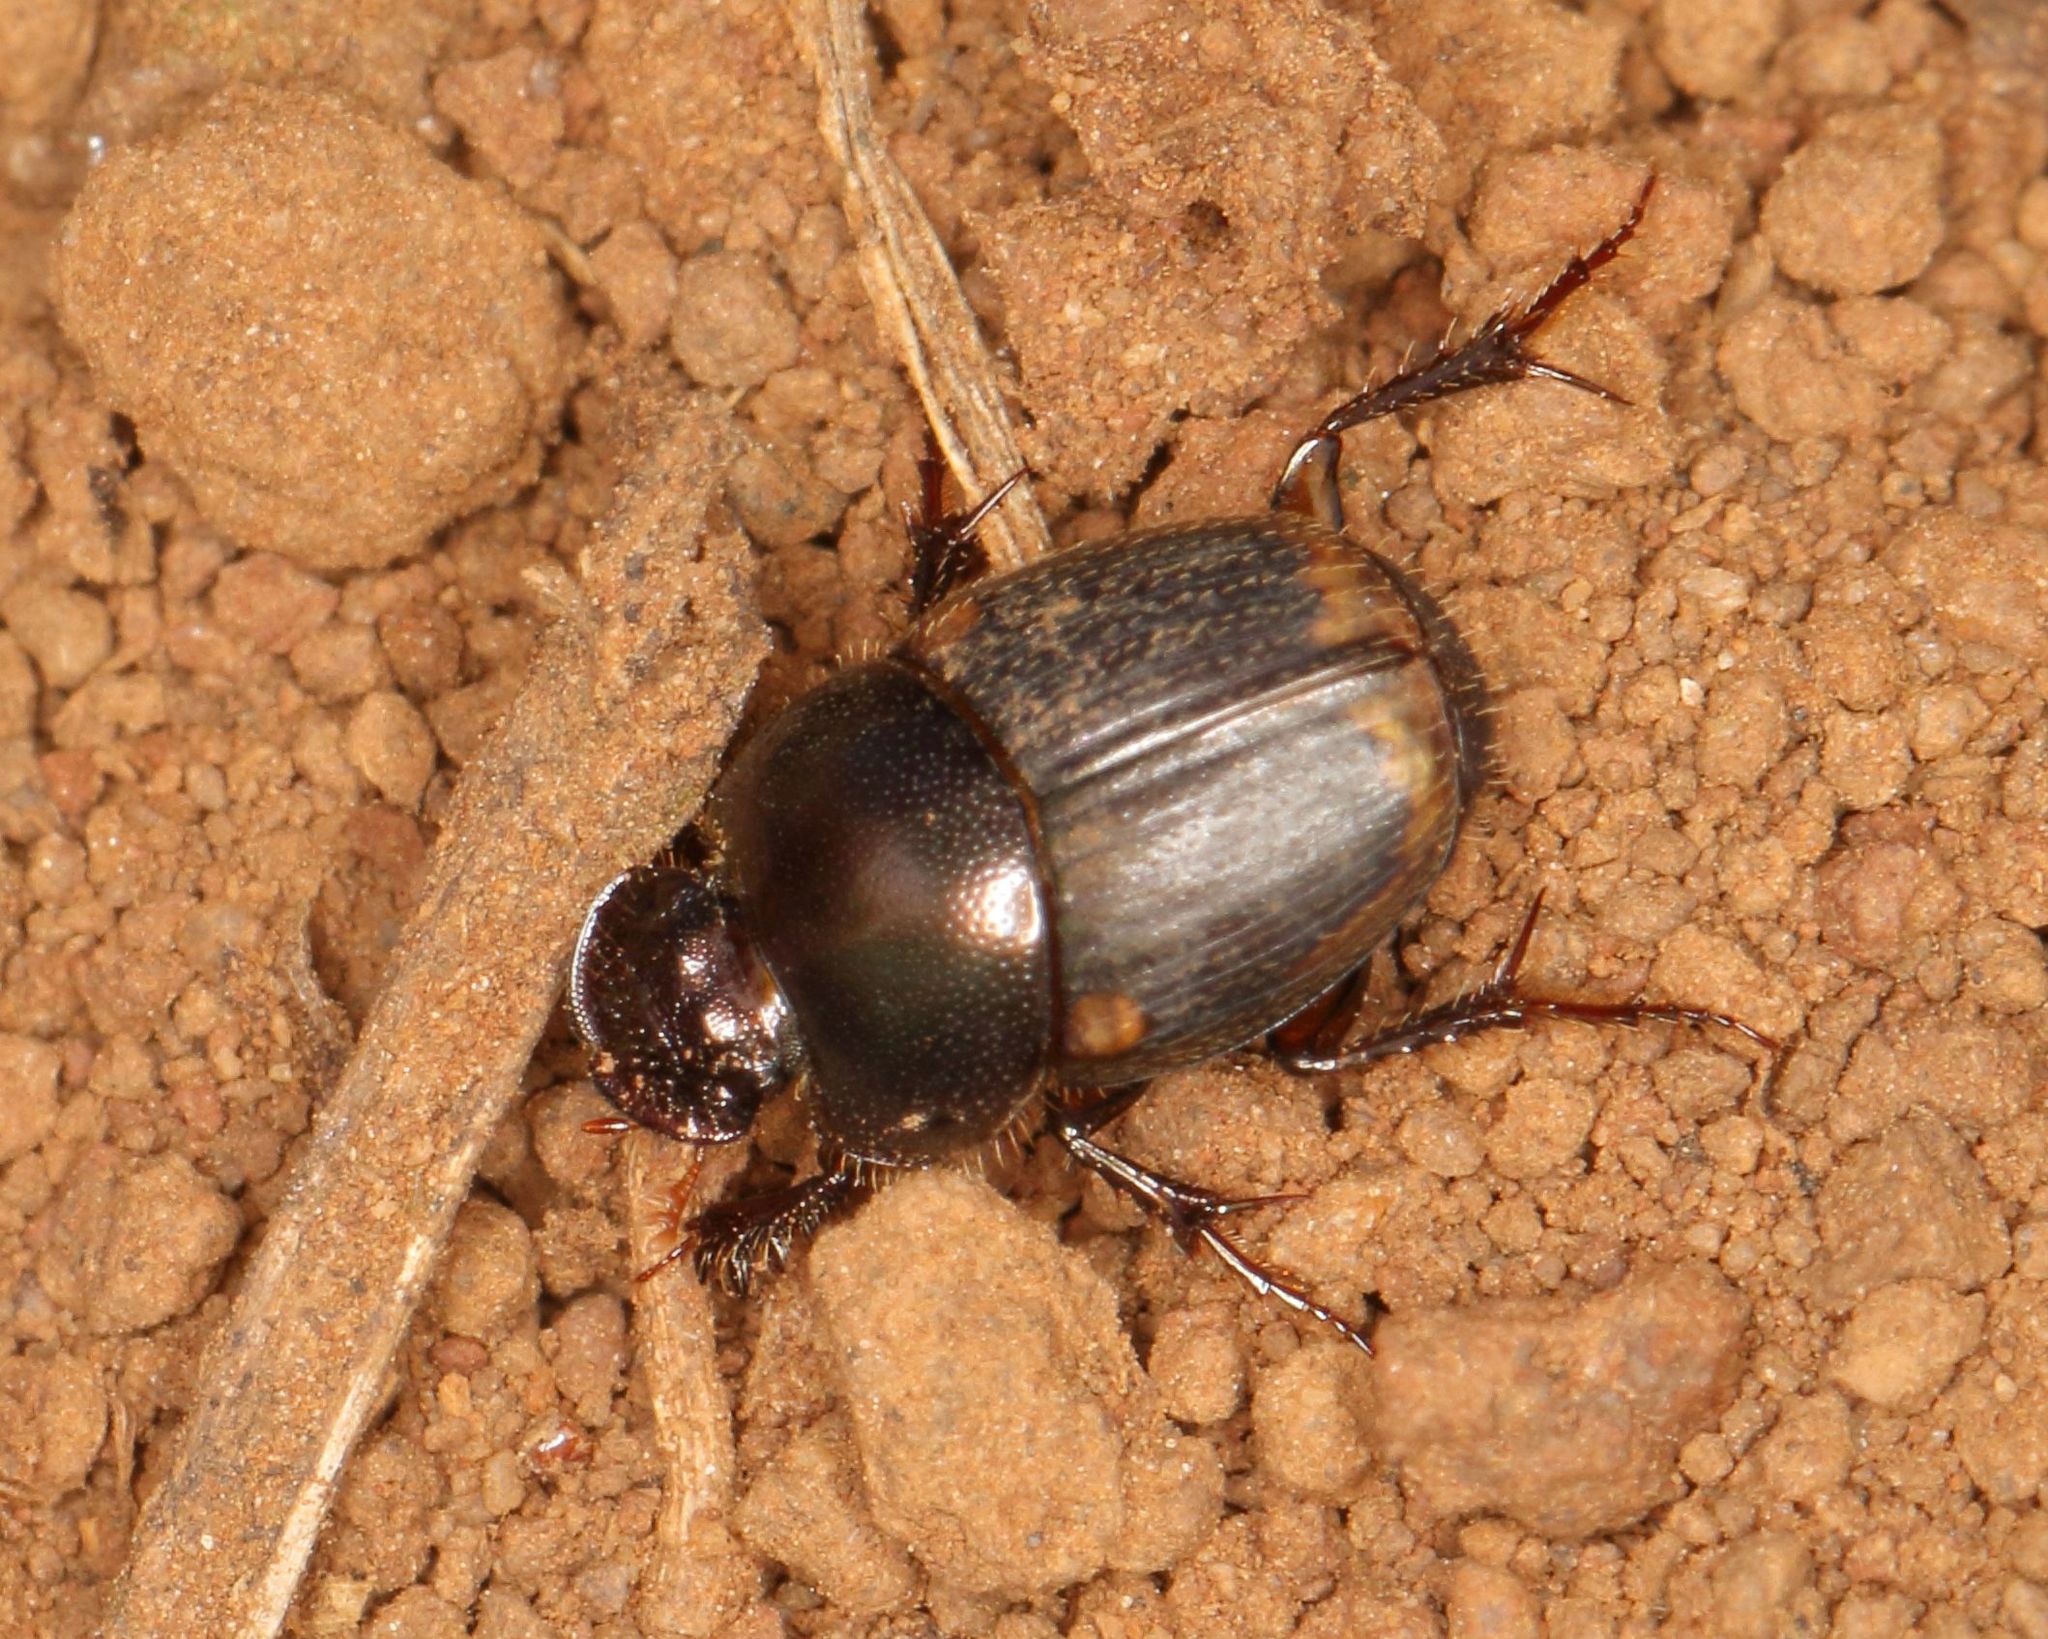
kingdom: Animalia
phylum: Arthropoda
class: Insecta
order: Coleoptera
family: Scarabaeidae
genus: Onthophagus
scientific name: Onthophagus vinctus
